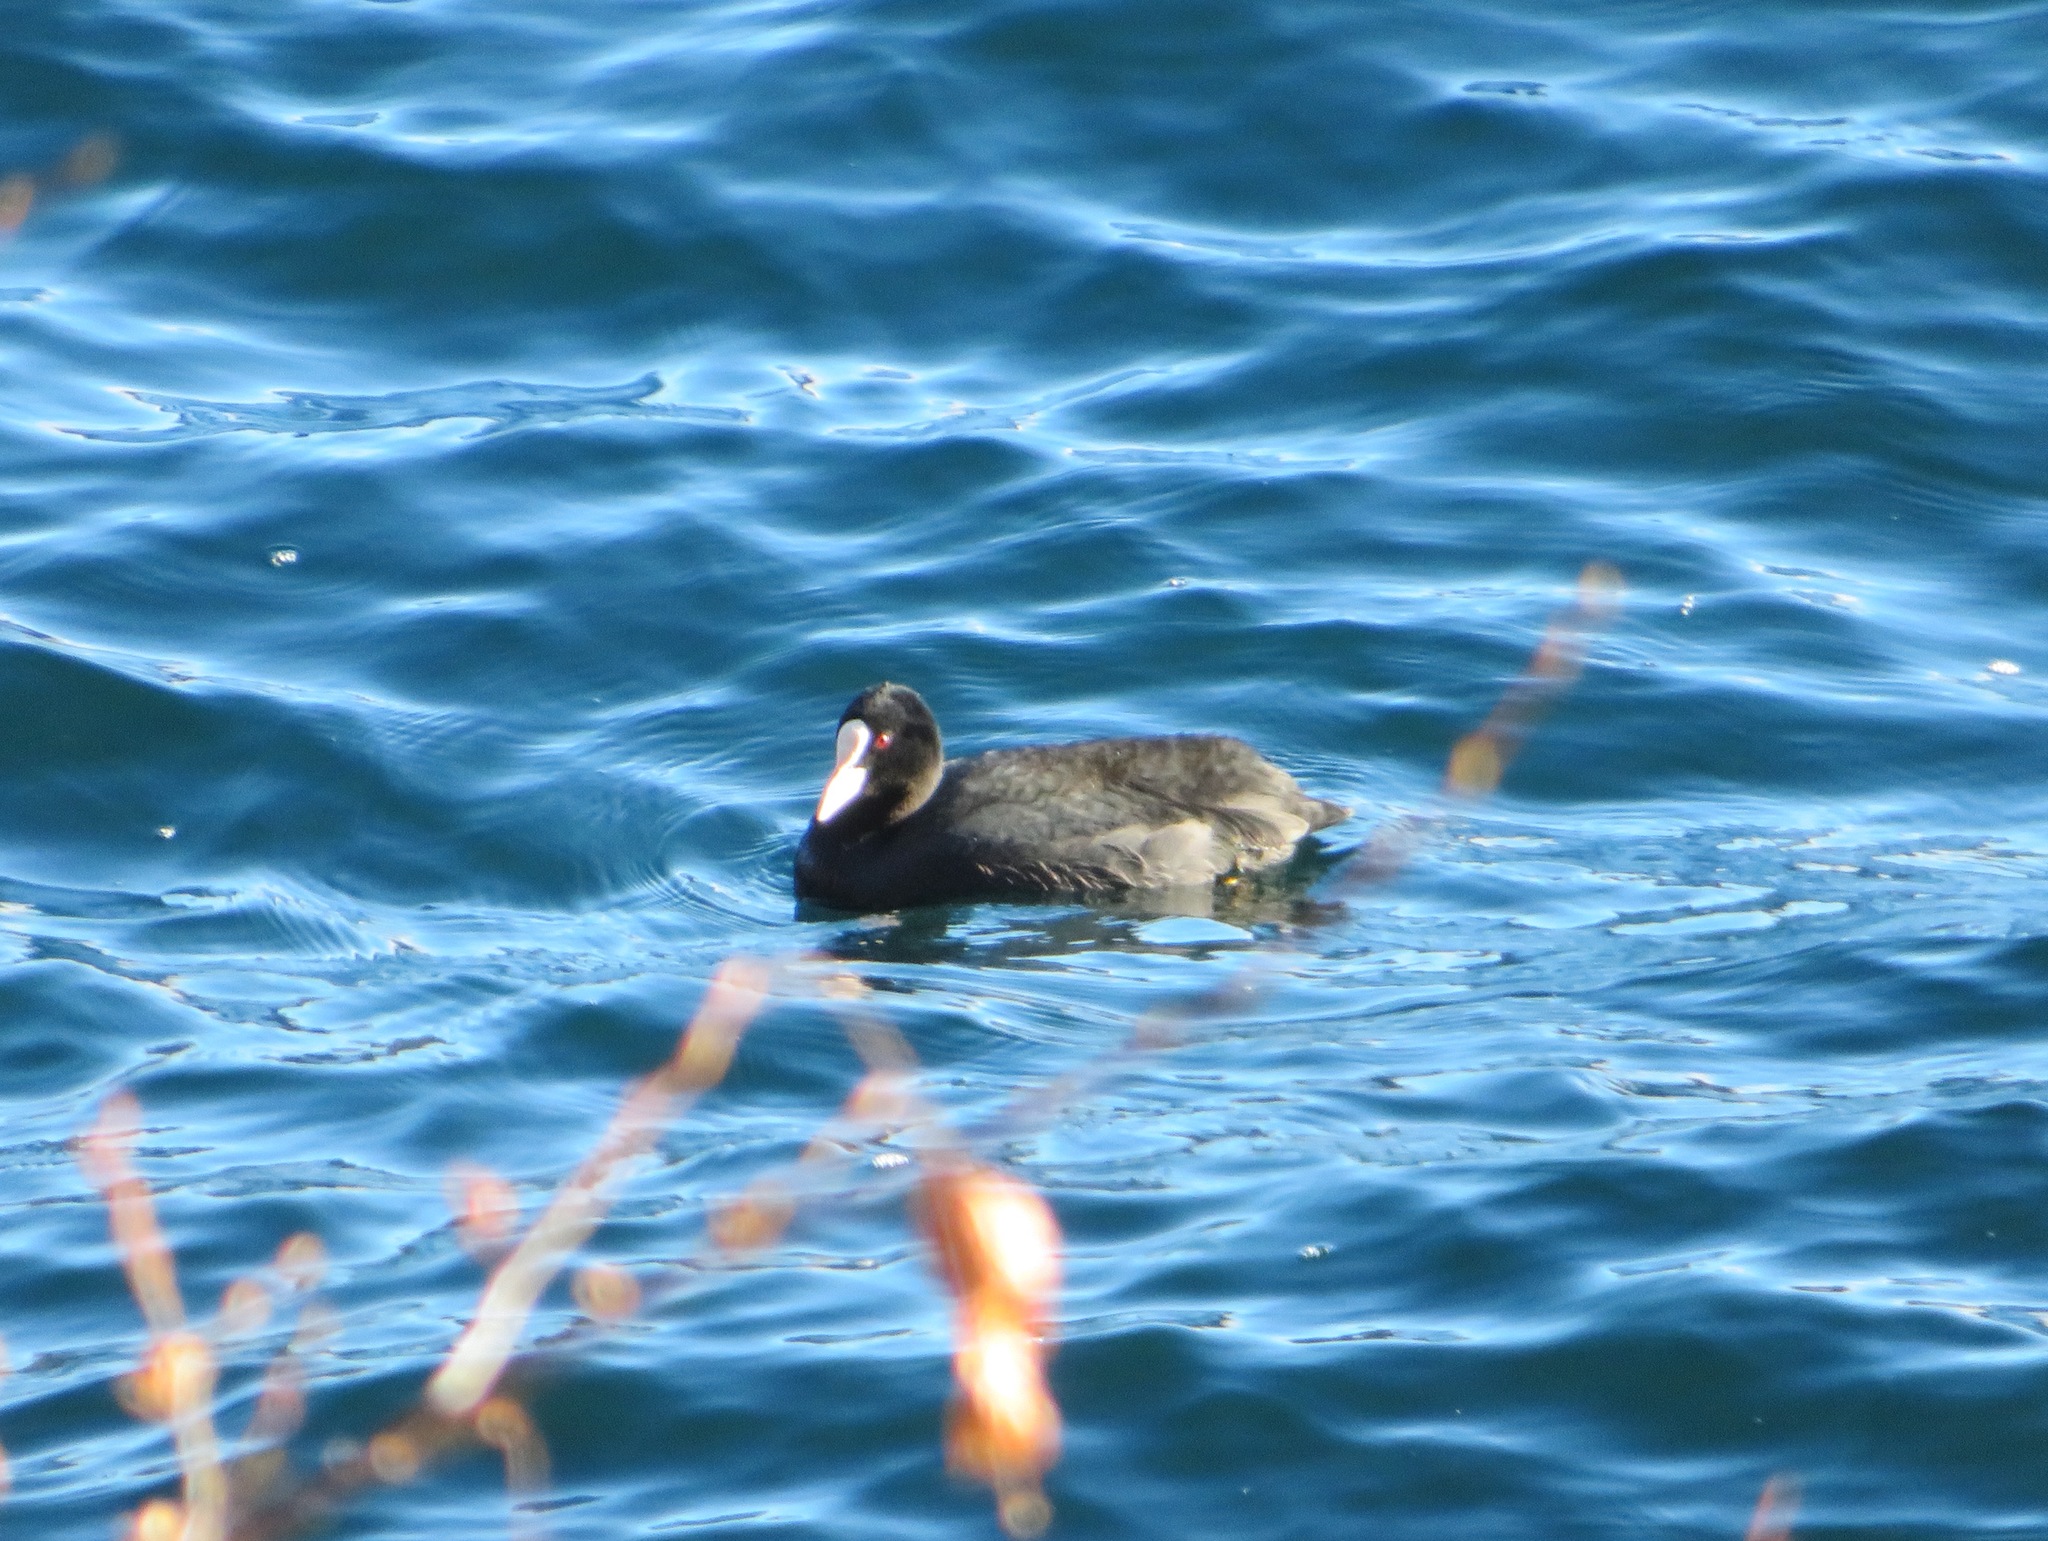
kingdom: Animalia
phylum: Chordata
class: Aves
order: Gruiformes
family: Rallidae
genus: Fulica
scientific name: Fulica atra
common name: Eurasian coot
